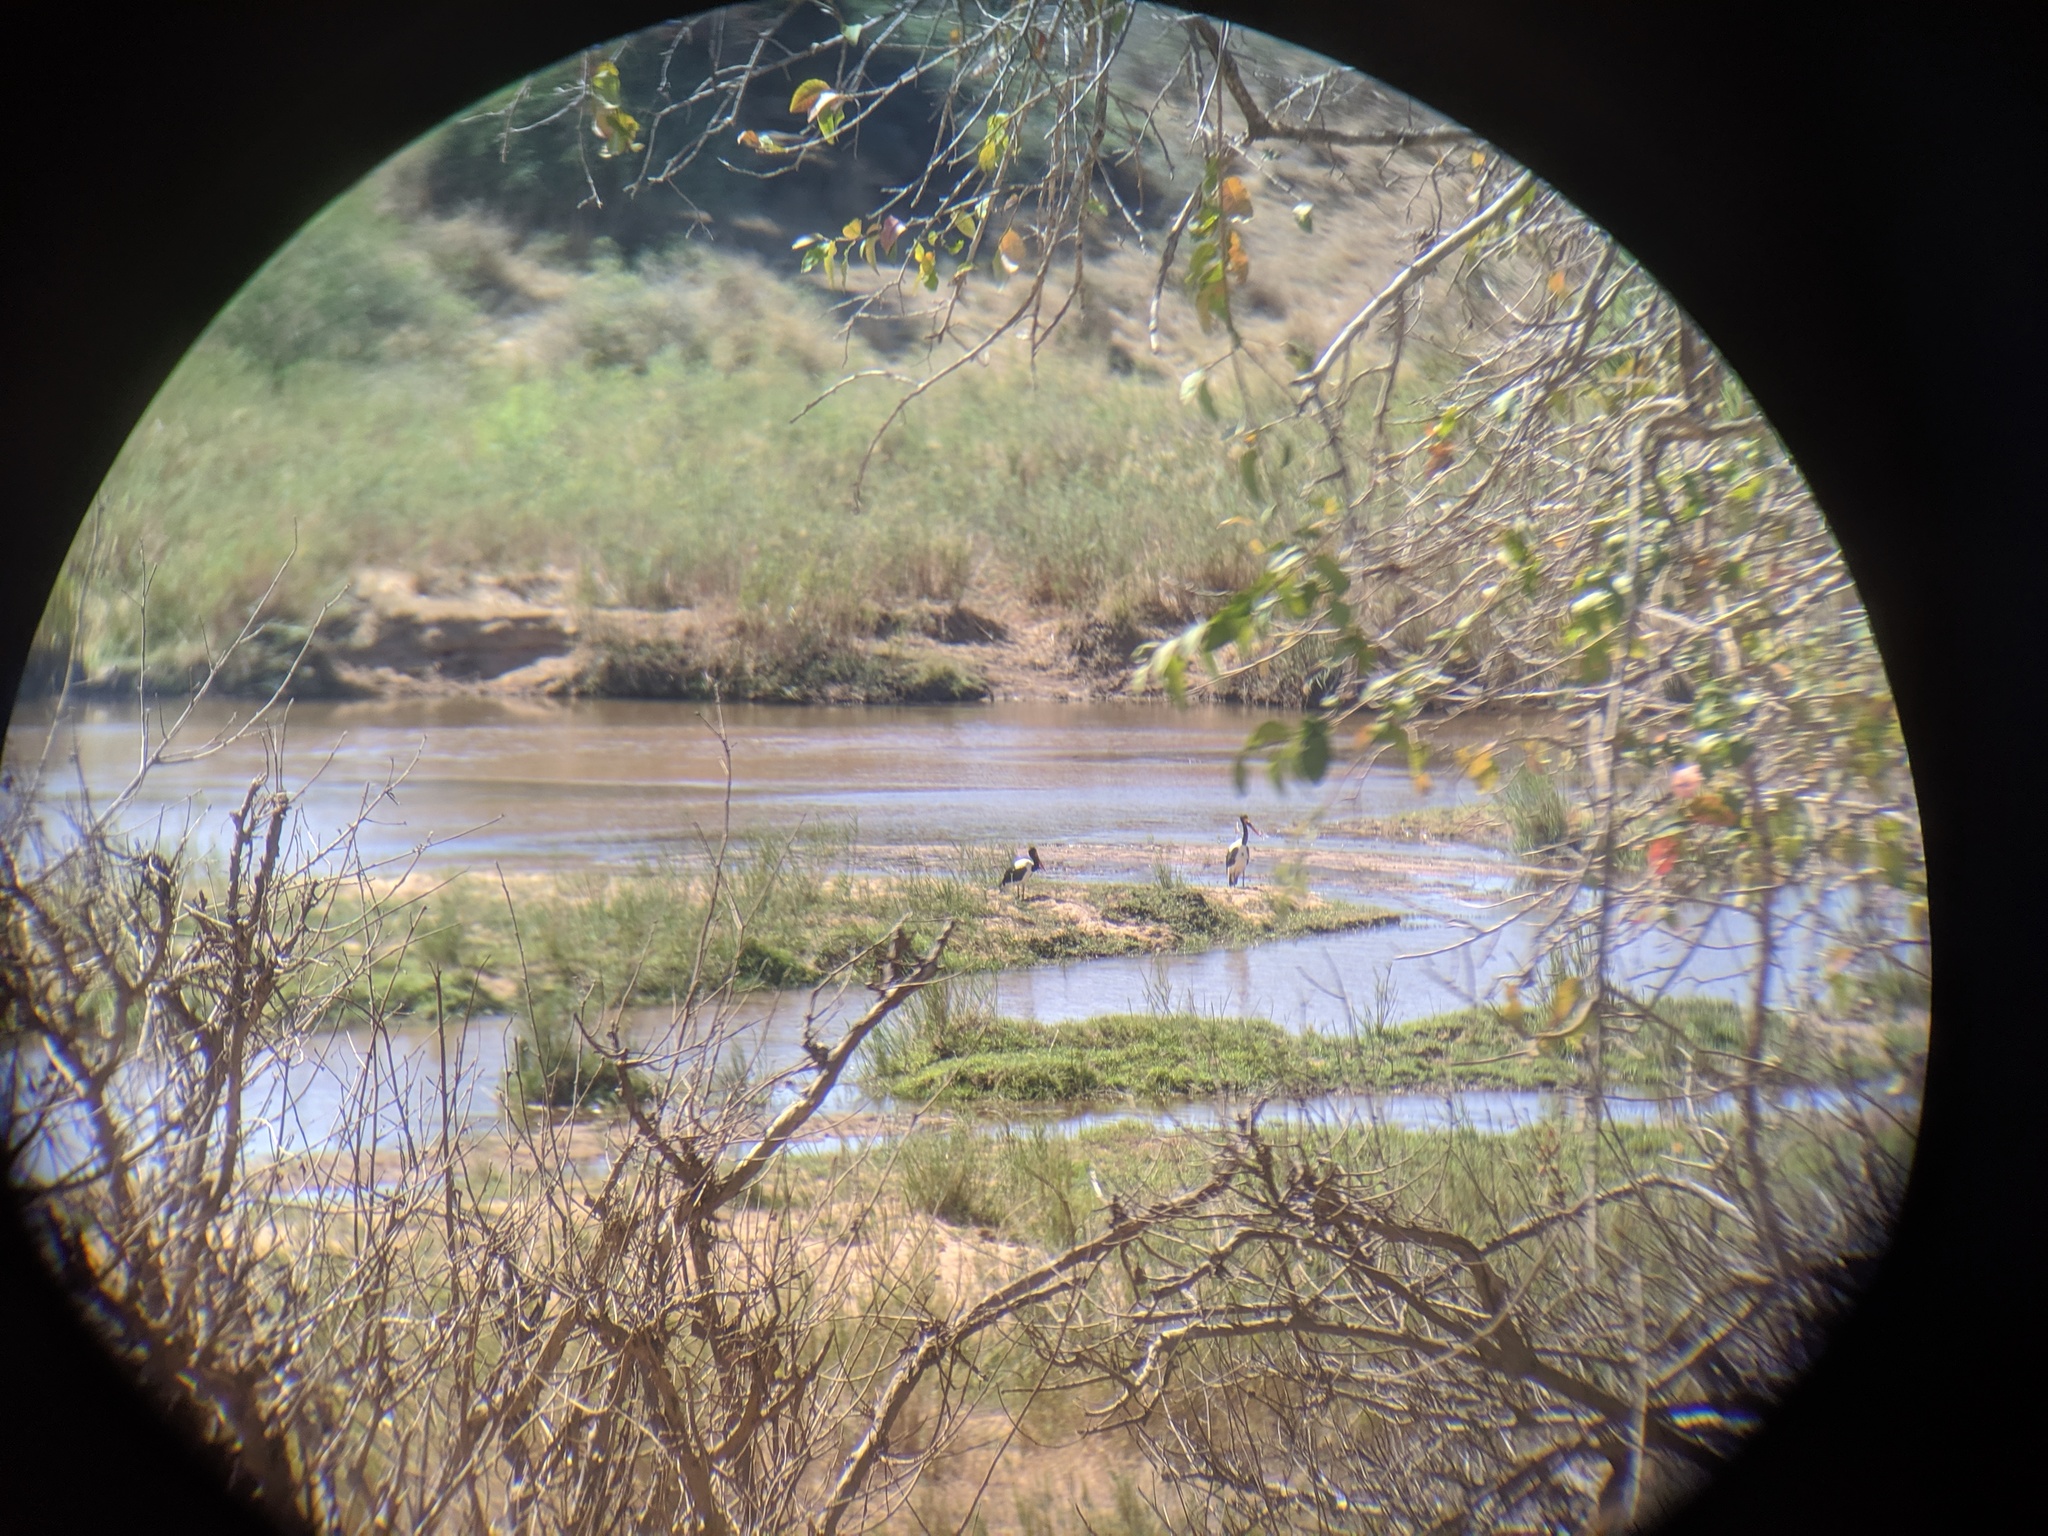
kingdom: Animalia
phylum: Chordata
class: Aves
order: Ciconiiformes
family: Ciconiidae
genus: Ephippiorhynchus
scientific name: Ephippiorhynchus senegalensis
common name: Saddle-billed stork
